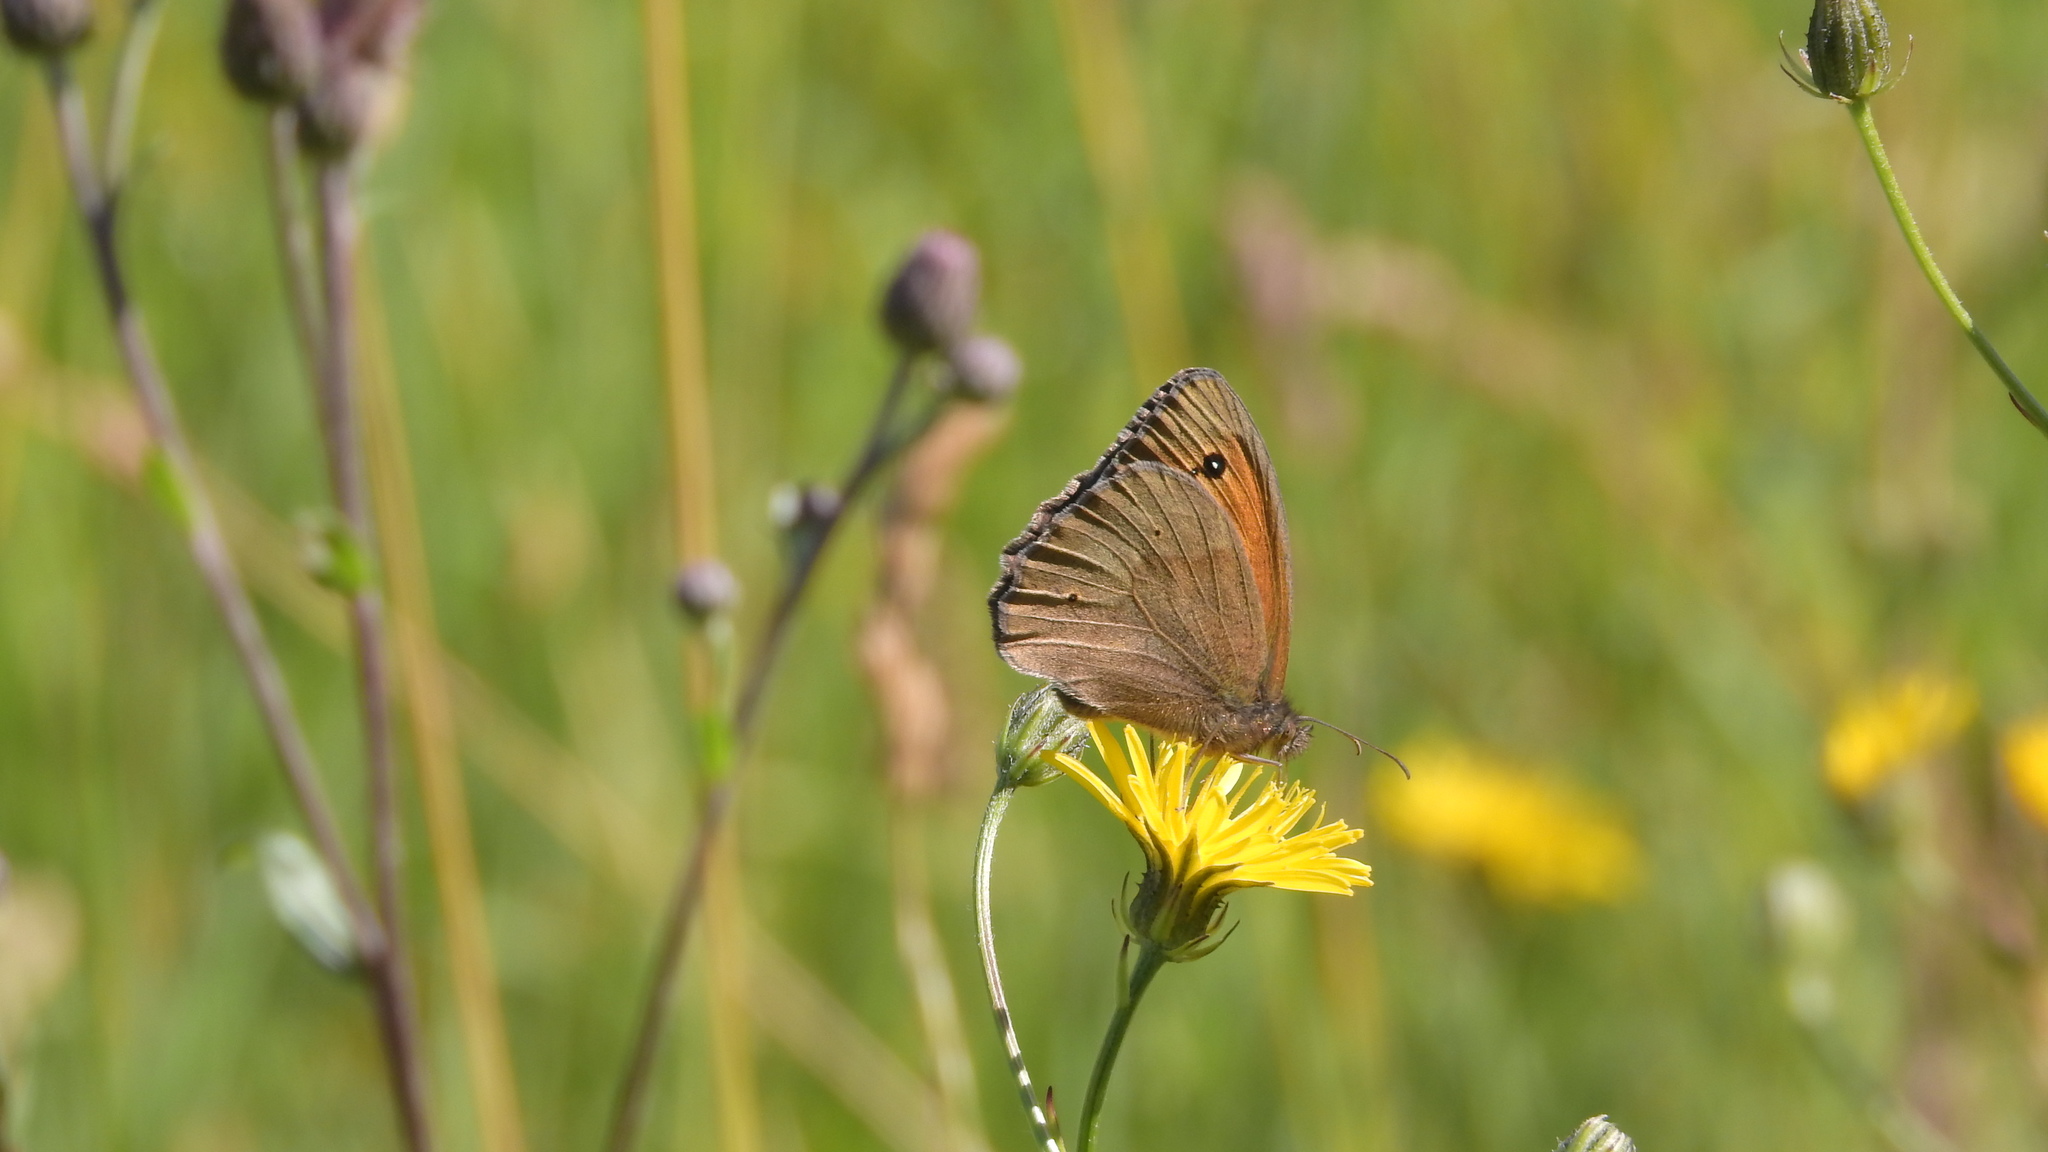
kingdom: Animalia
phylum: Arthropoda
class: Insecta
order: Lepidoptera
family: Nymphalidae
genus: Maniola
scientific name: Maniola jurtina
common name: Meadow brown
